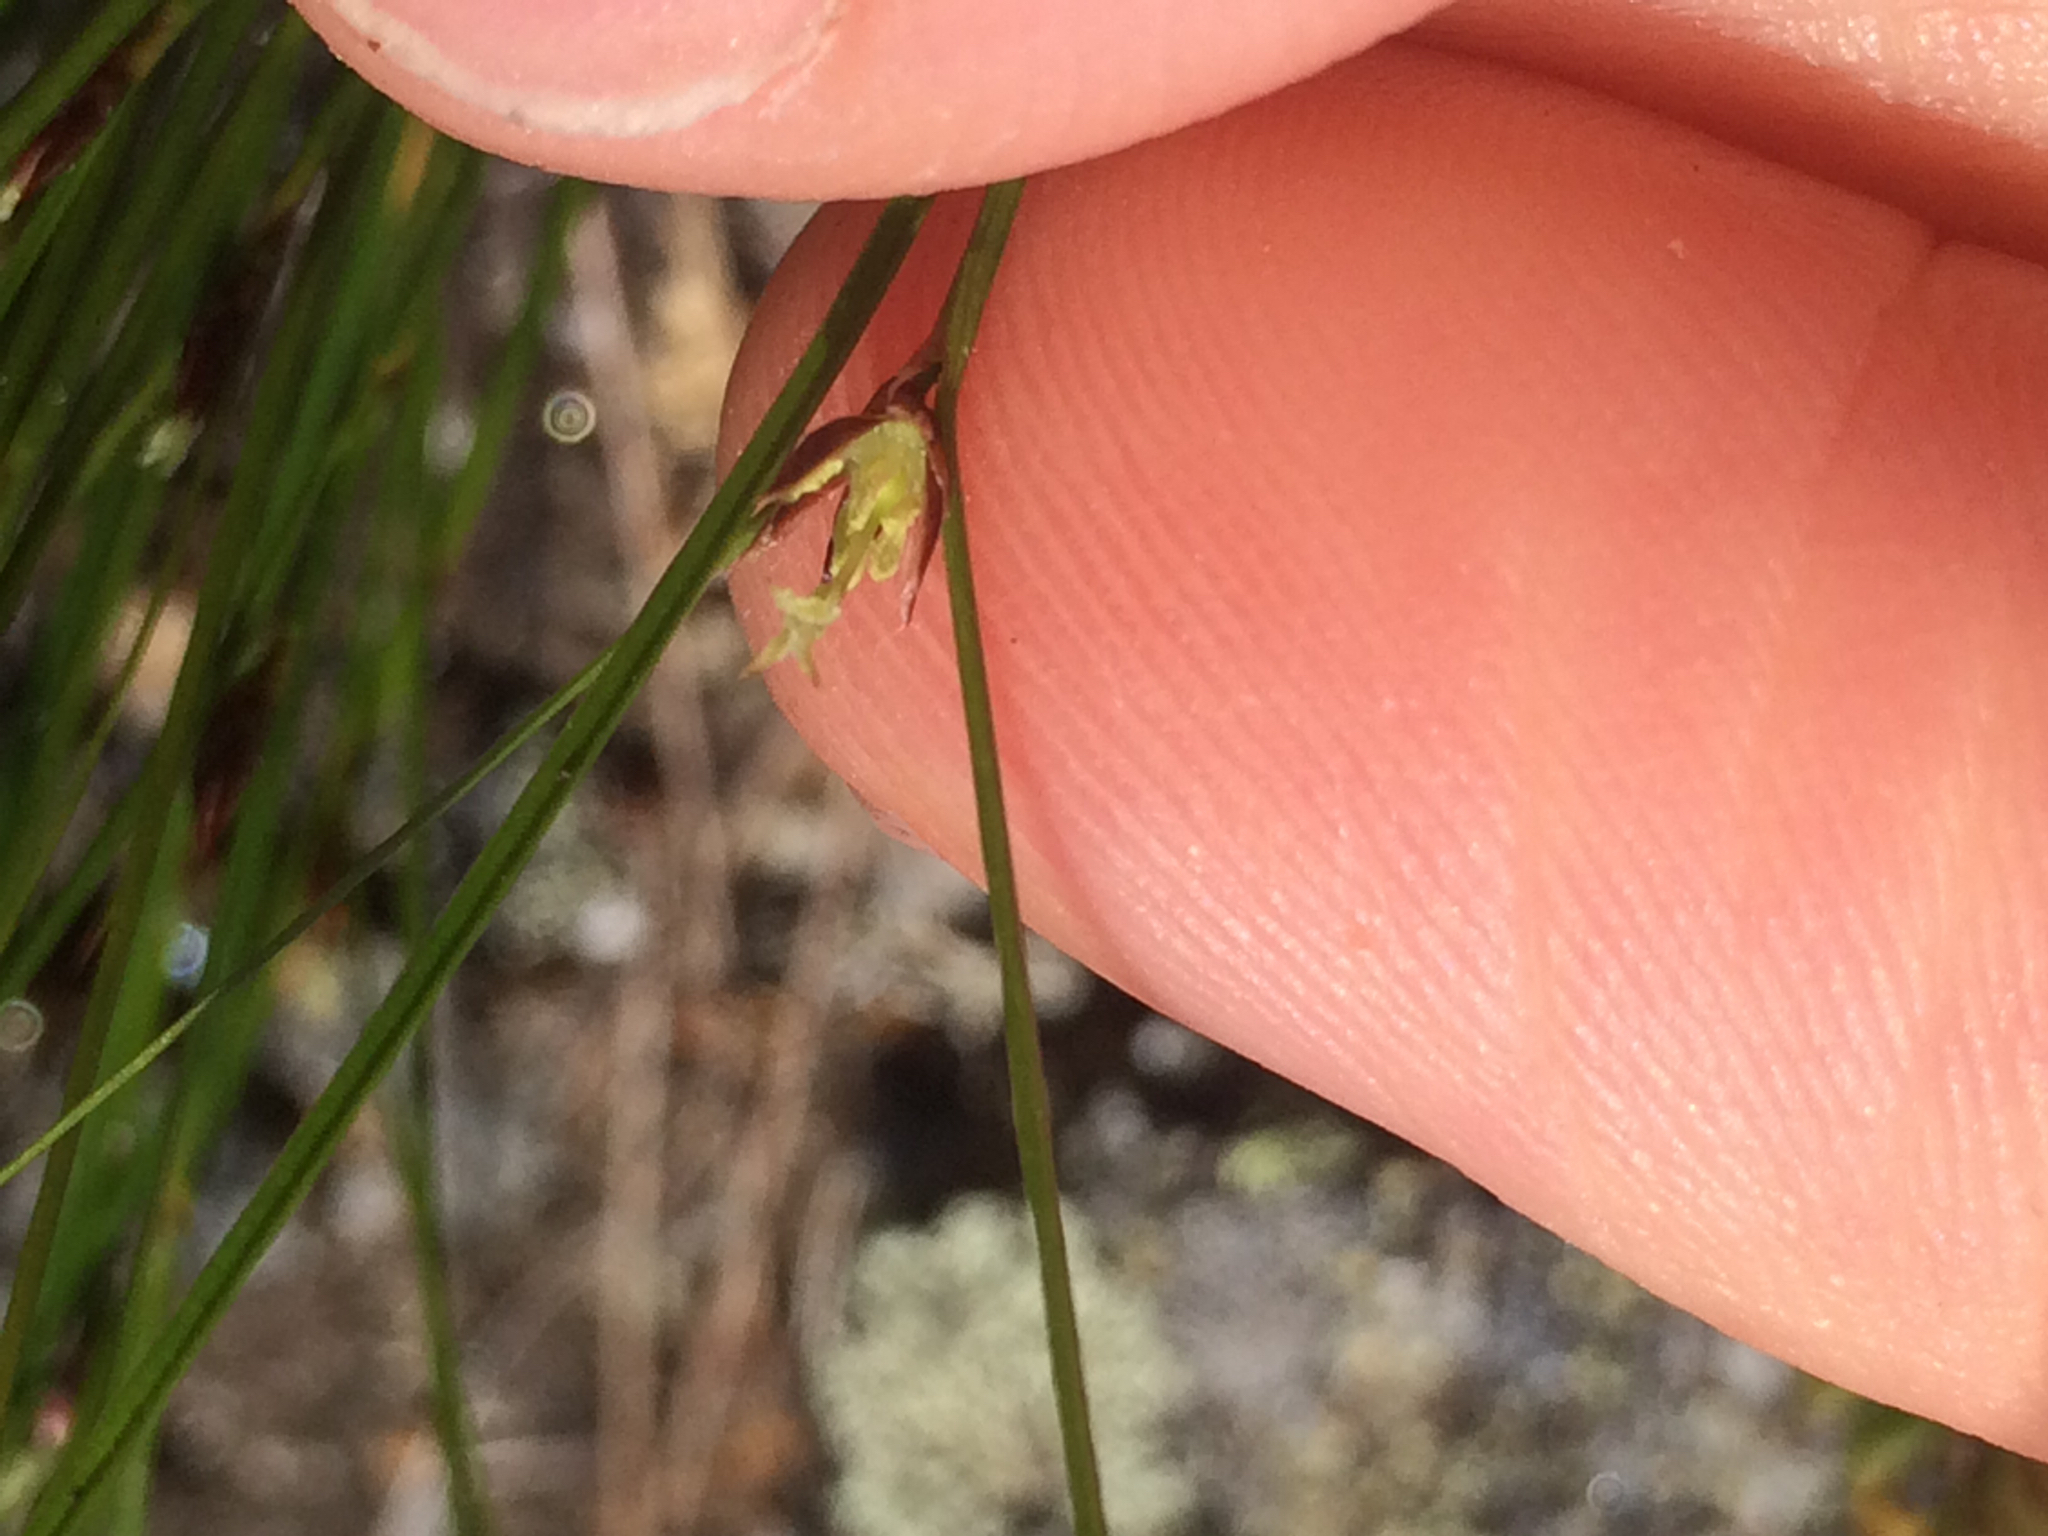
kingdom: Plantae
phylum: Tracheophyta
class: Liliopsida
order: Poales
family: Juncaceae
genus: Oreojuncus
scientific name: Oreojuncus trifidus
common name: Highland rush
